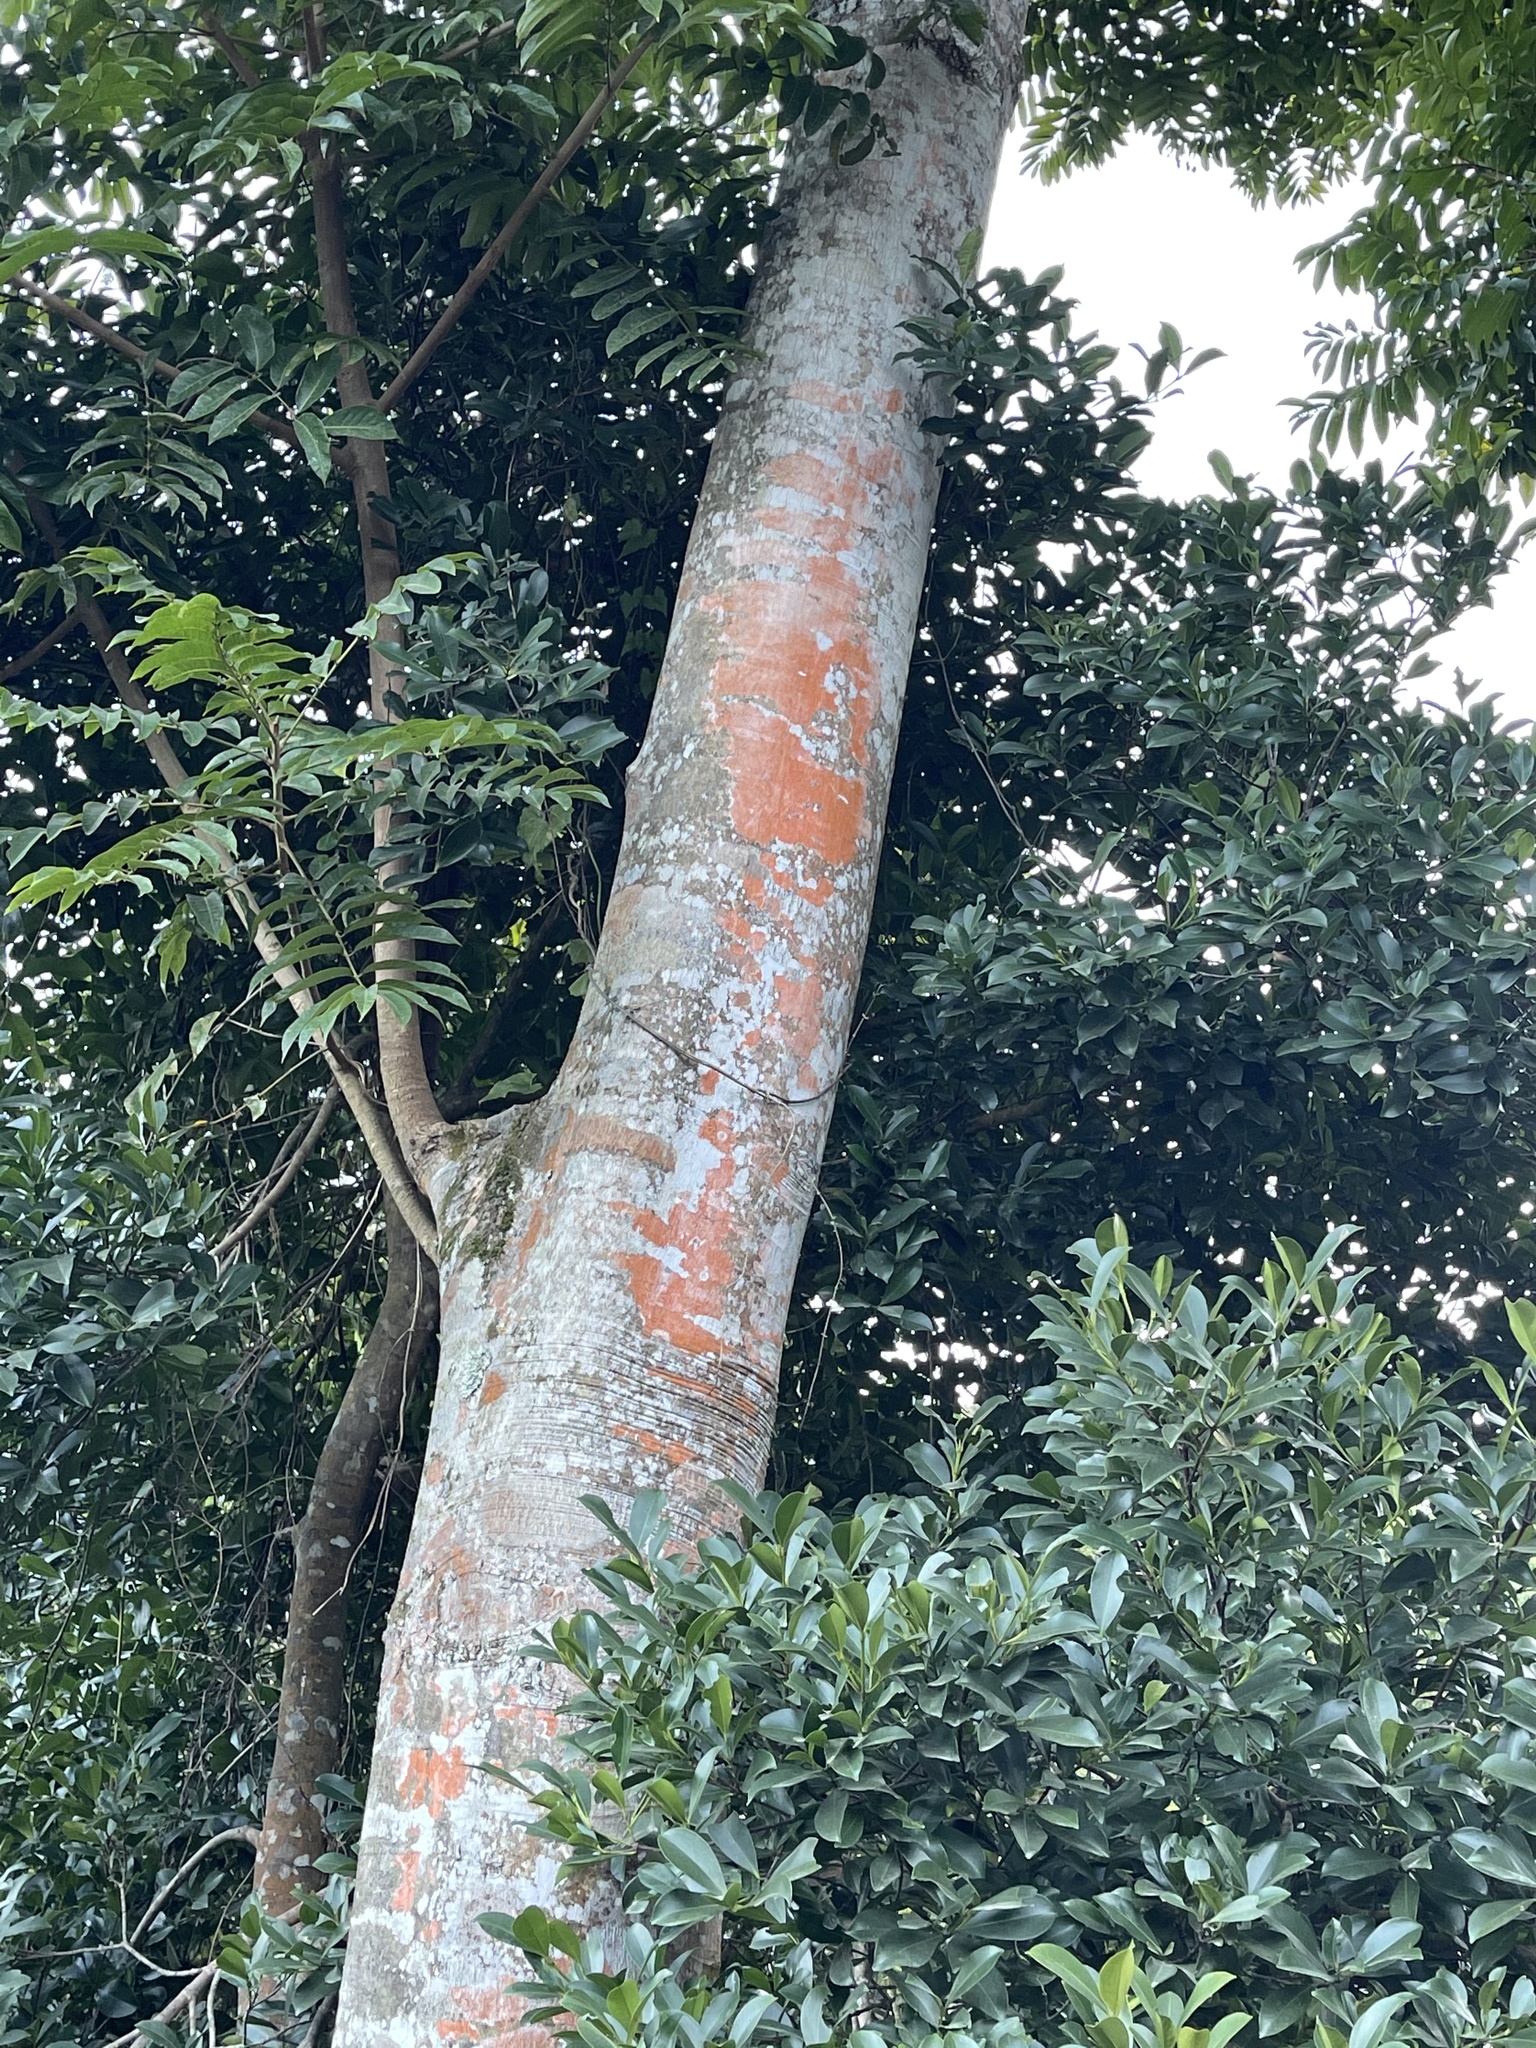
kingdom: Plantae
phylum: Tracheophyta
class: Magnoliopsida
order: Sapindales
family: Simaroubaceae
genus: Ailanthus
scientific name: Ailanthus fordii
